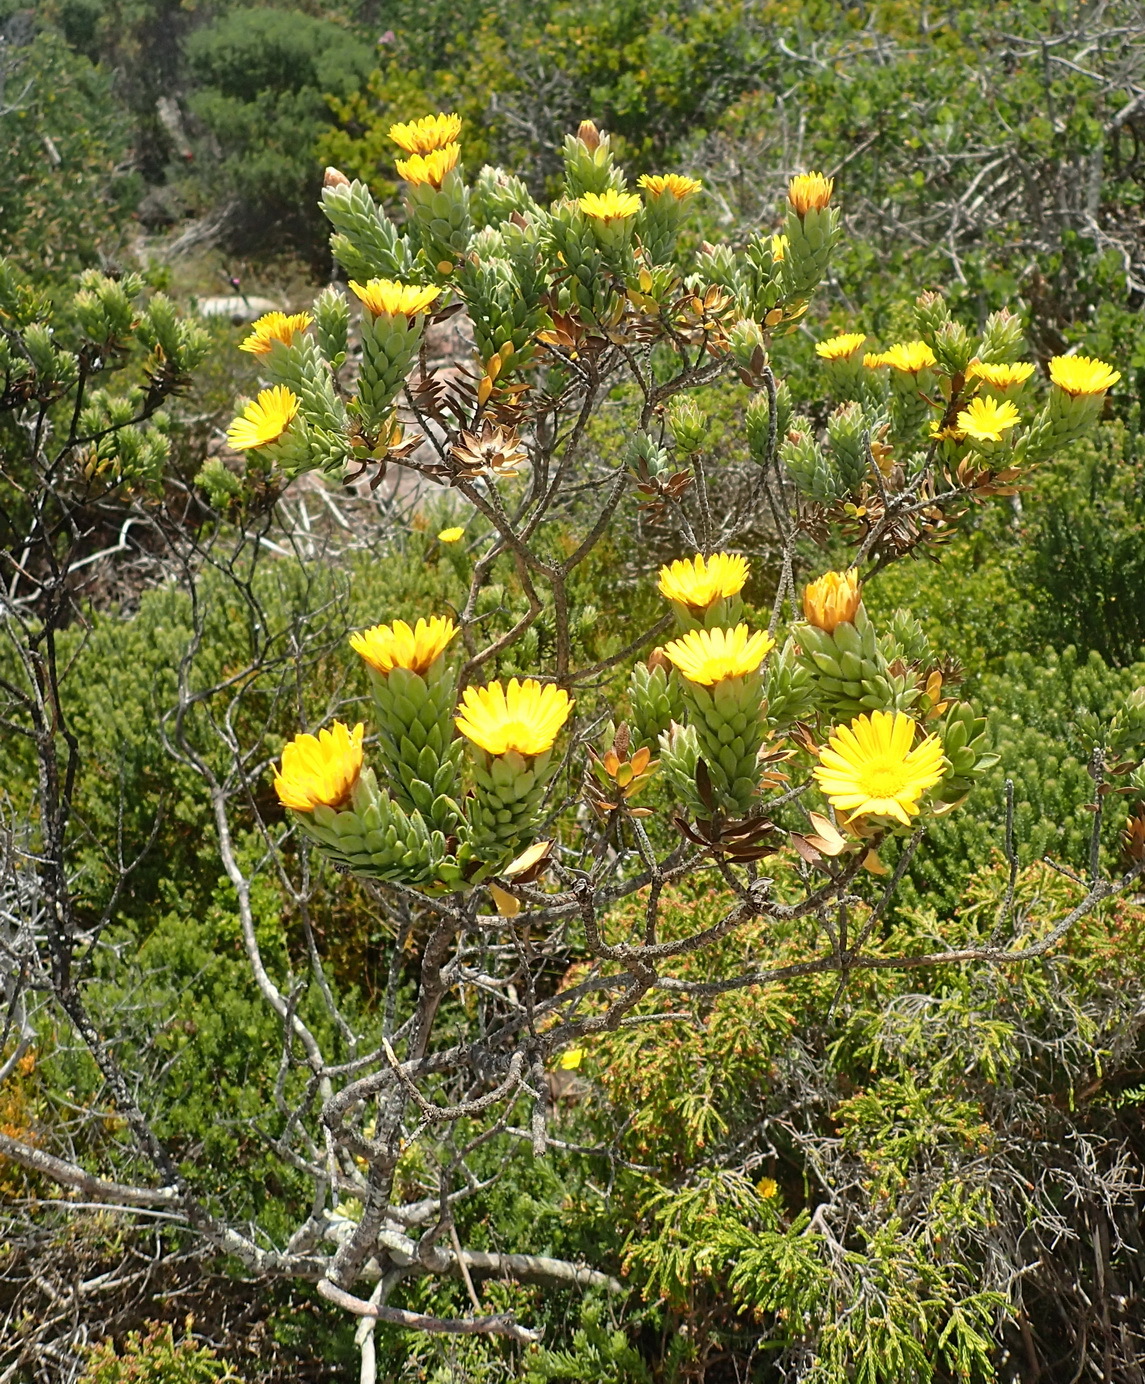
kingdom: Plantae
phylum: Tracheophyta
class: Magnoliopsida
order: Asterales
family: Asteraceae
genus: Oedera
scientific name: Oedera calycina
